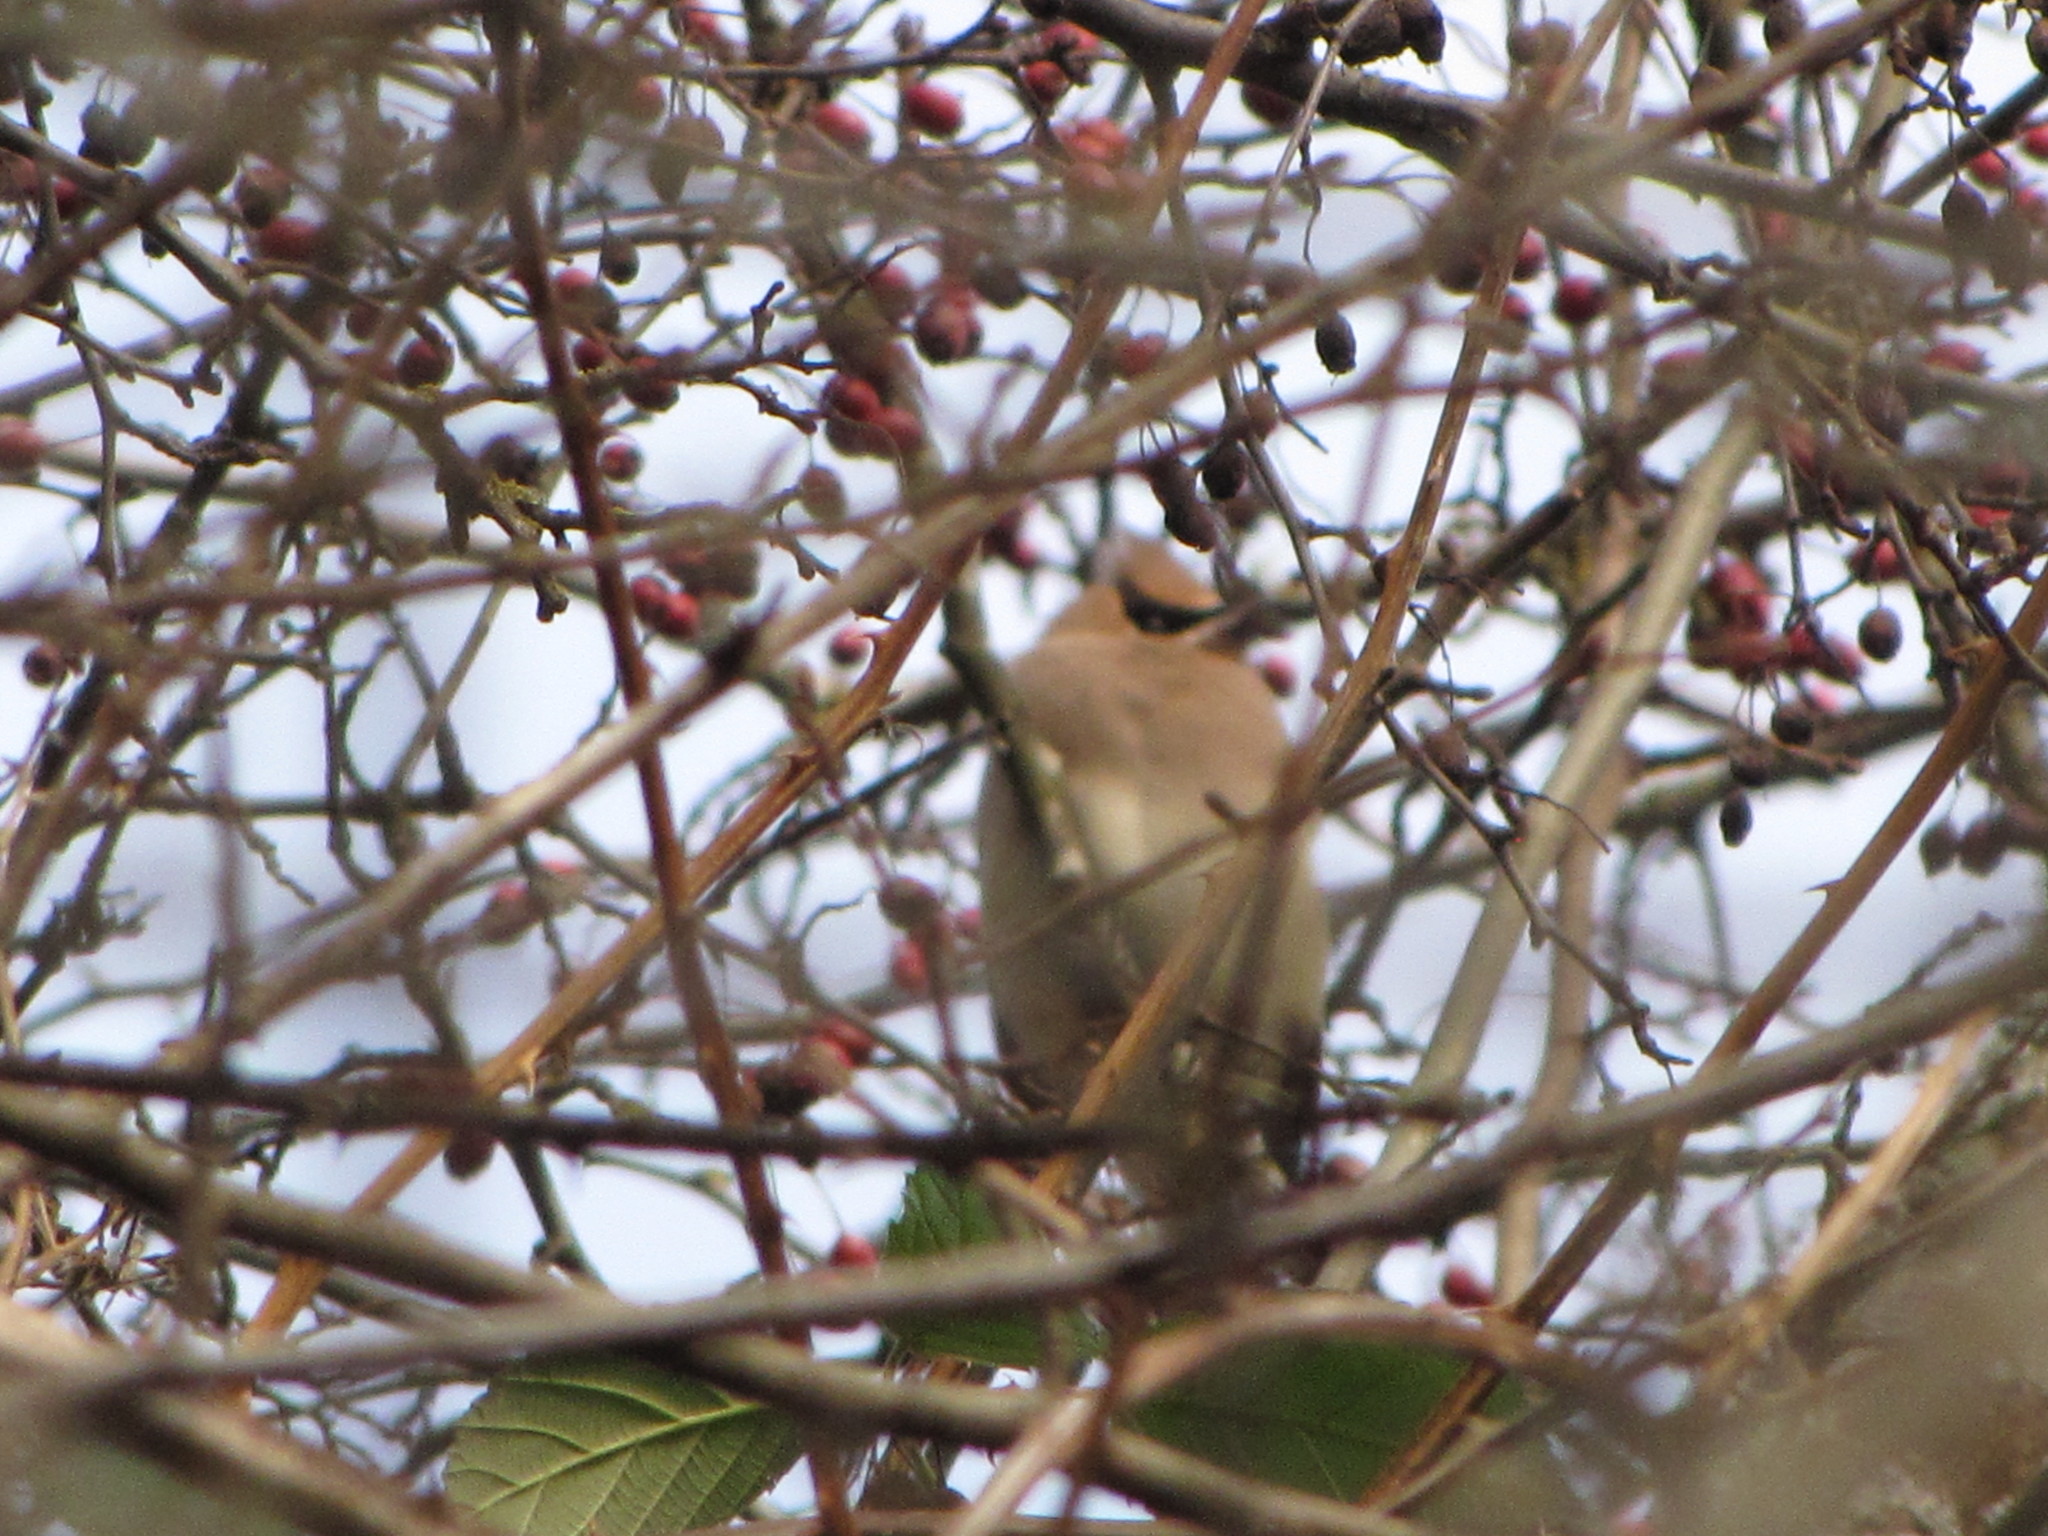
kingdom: Animalia
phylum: Chordata
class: Aves
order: Passeriformes
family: Bombycillidae
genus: Bombycilla
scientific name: Bombycilla cedrorum
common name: Cedar waxwing
